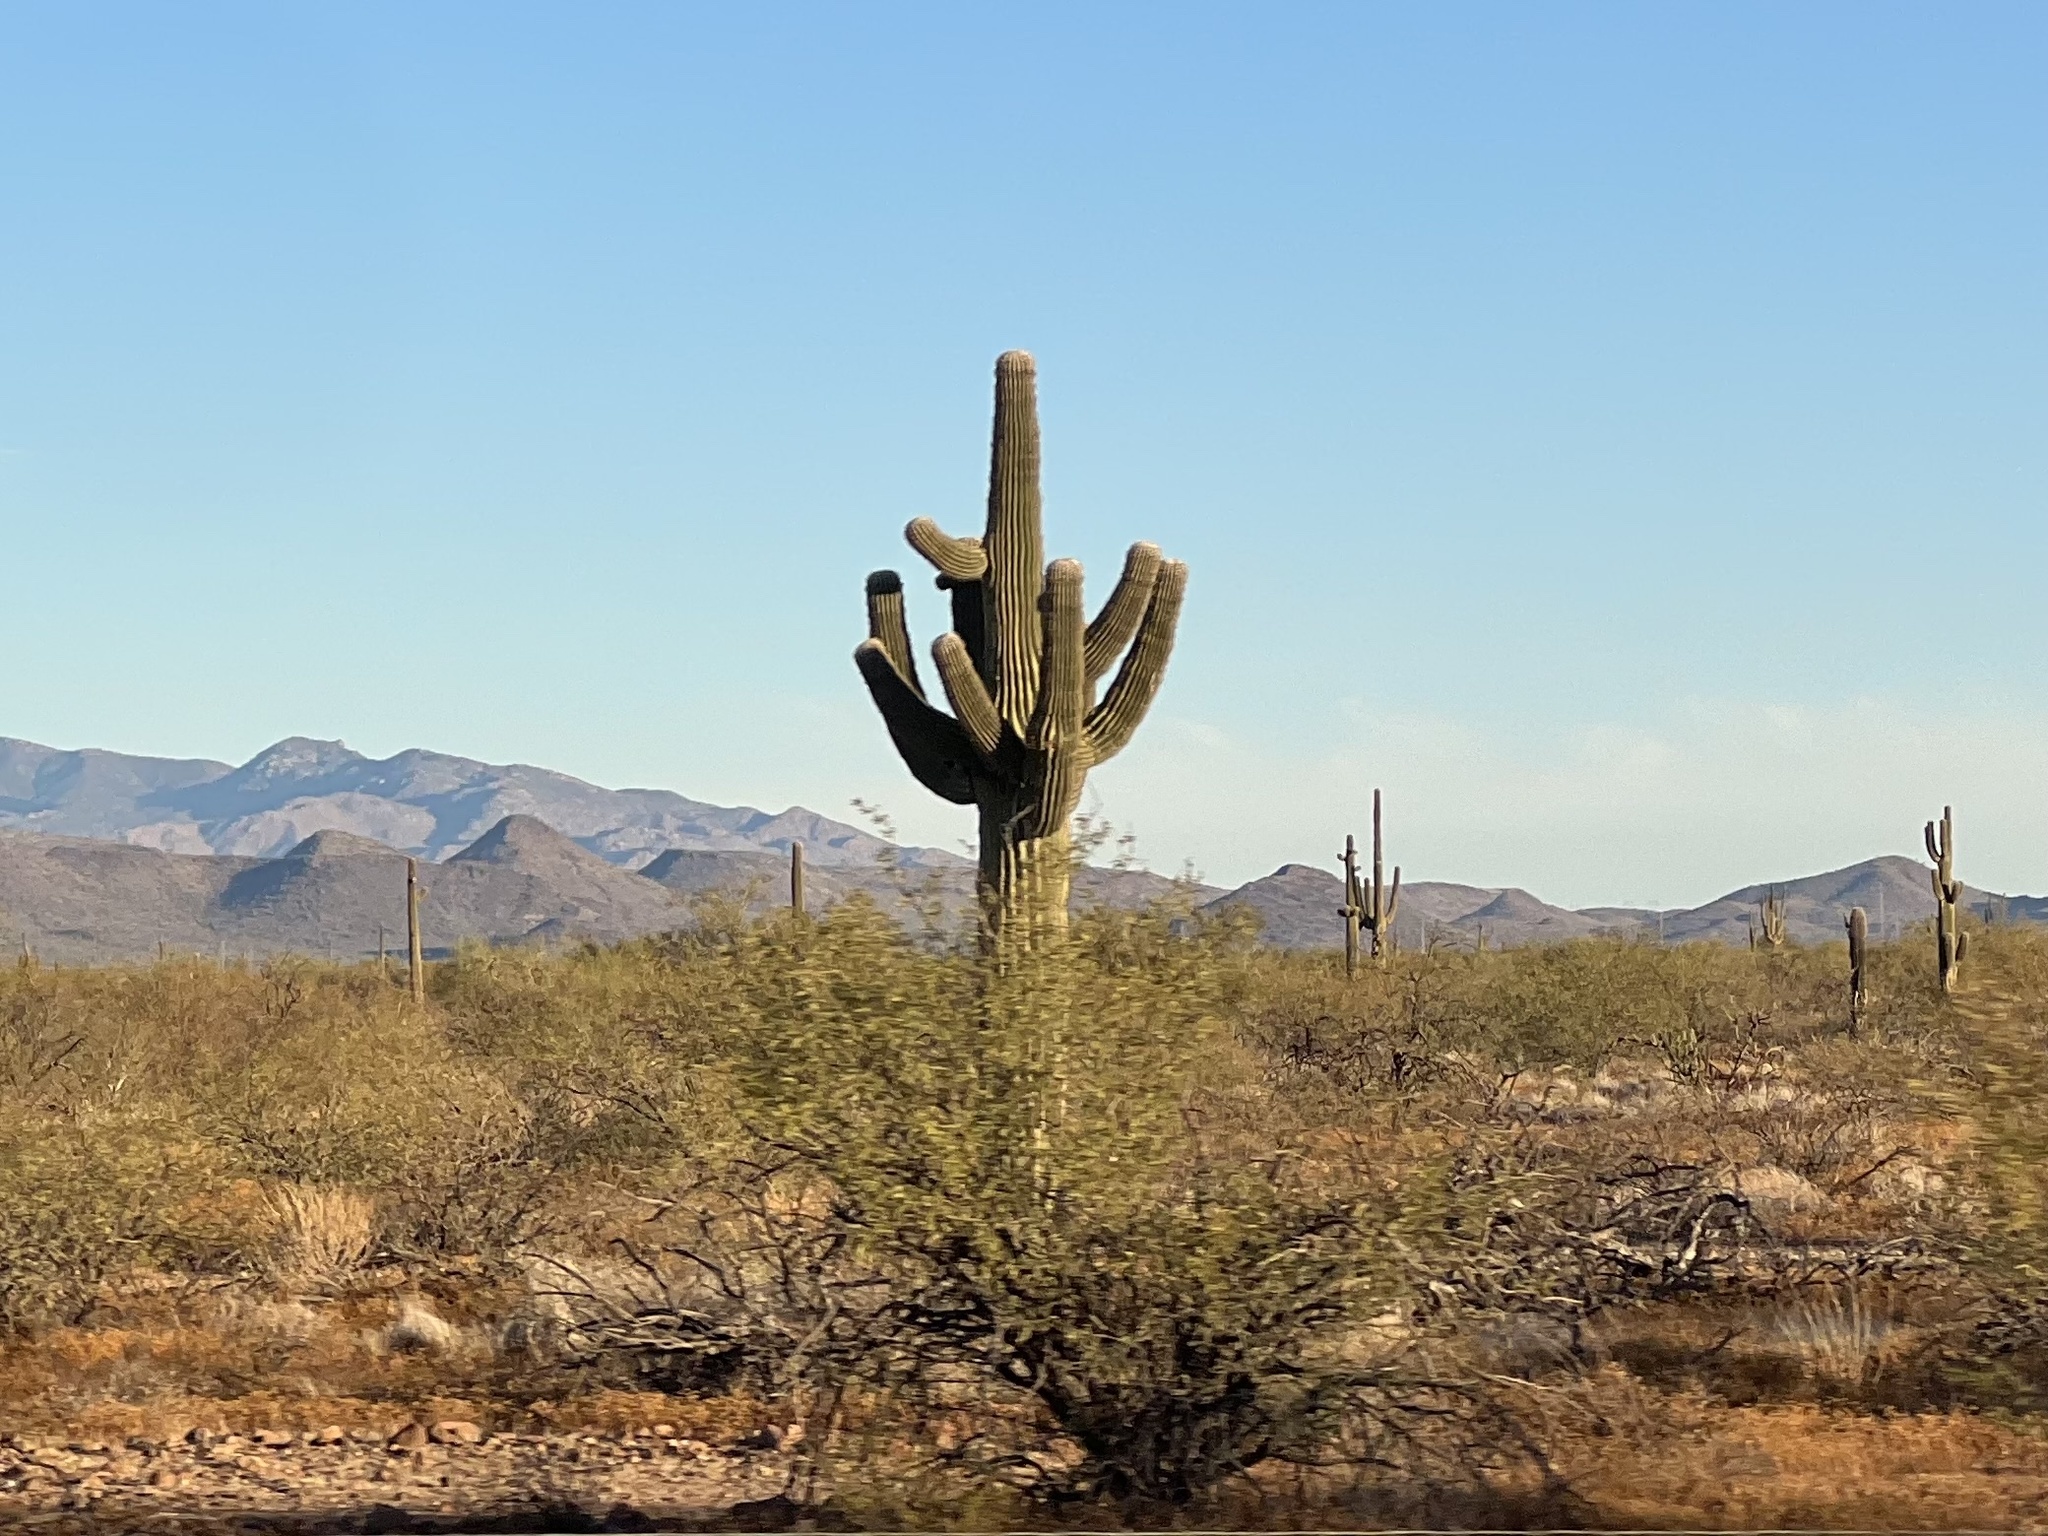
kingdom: Plantae
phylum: Tracheophyta
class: Magnoliopsida
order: Caryophyllales
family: Cactaceae
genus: Carnegiea
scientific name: Carnegiea gigantea
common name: Saguaro
